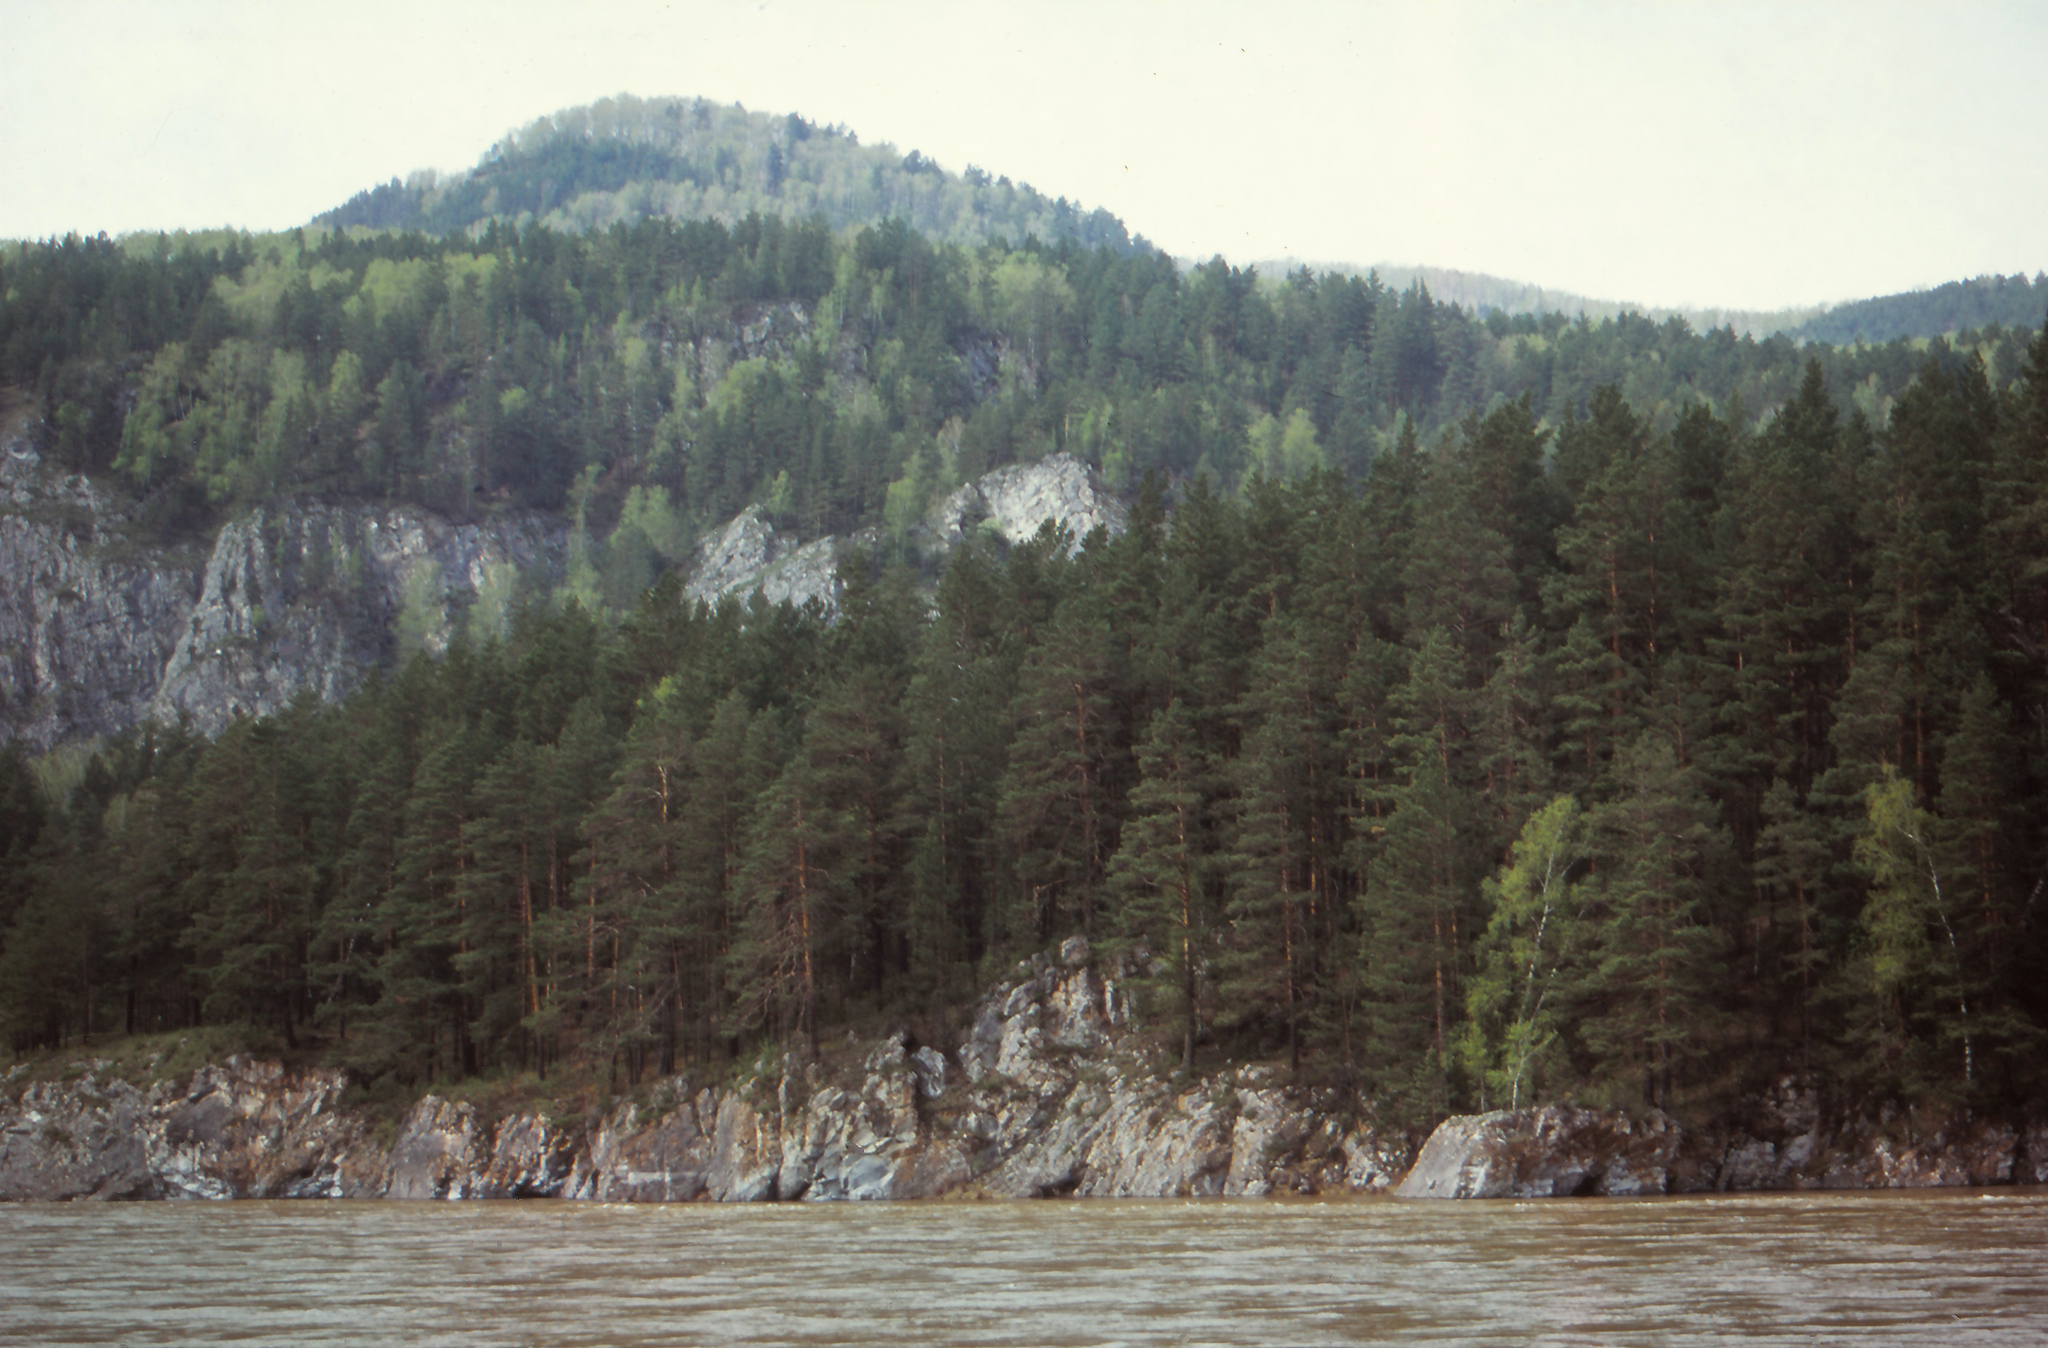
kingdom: Plantae
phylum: Tracheophyta
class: Pinopsida
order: Pinales
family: Pinaceae
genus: Pinus
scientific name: Pinus sylvestris
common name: Scots pine
